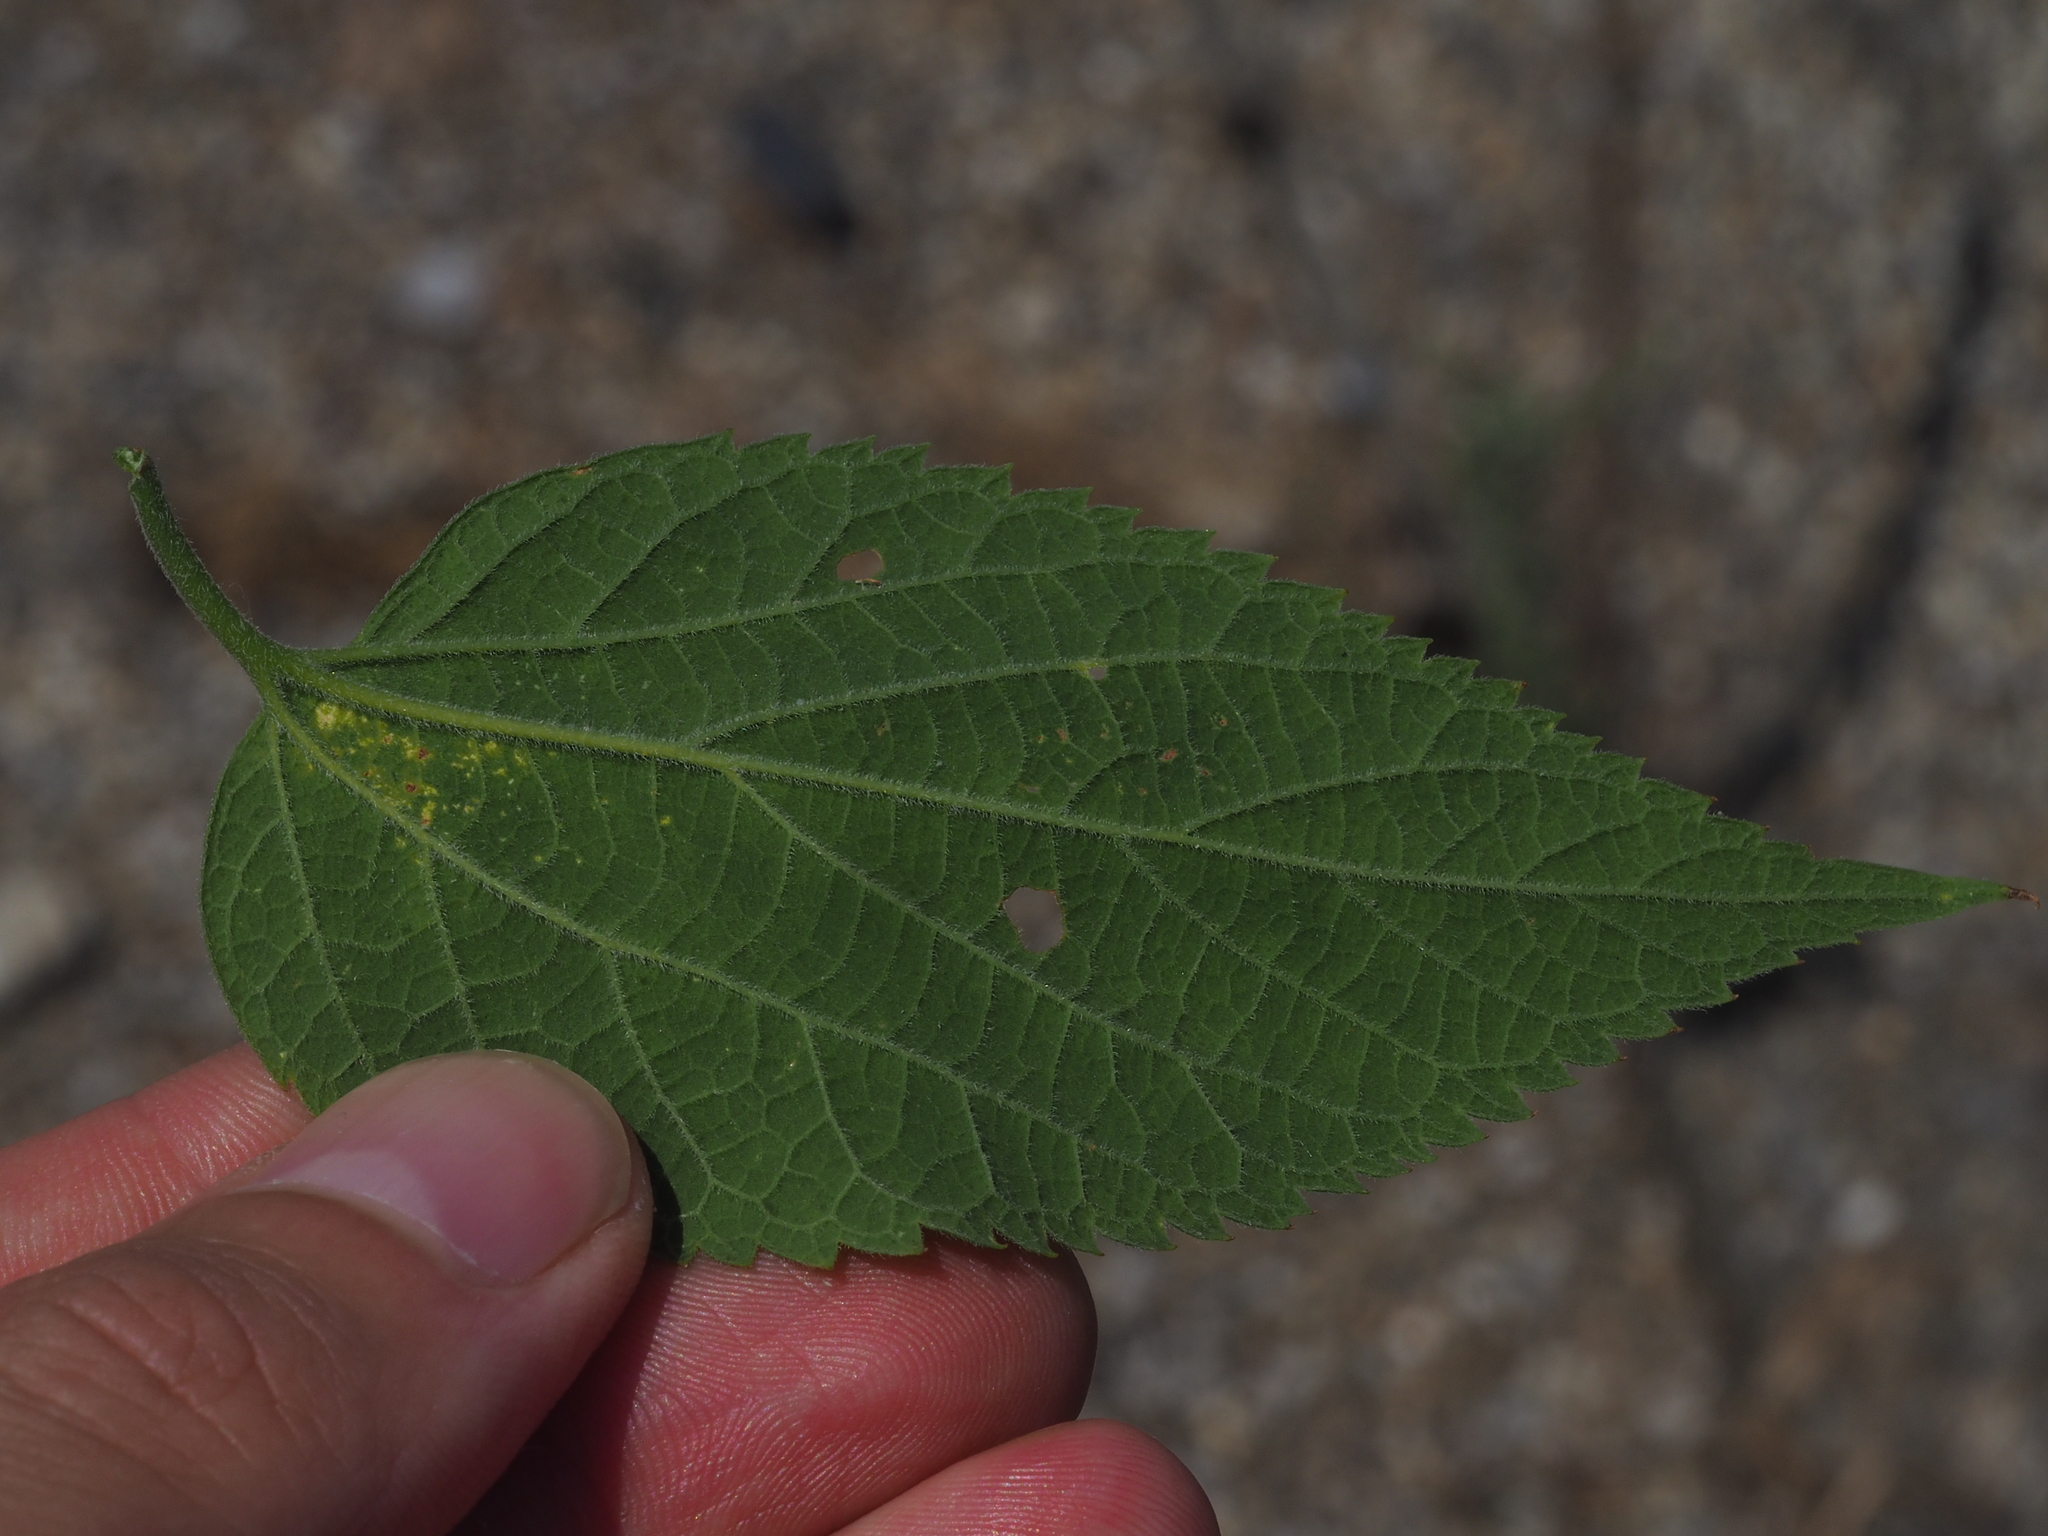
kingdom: Plantae
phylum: Tracheophyta
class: Magnoliopsida
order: Rosales
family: Cannabaceae
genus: Celtis
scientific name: Celtis australis
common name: European hackberry
